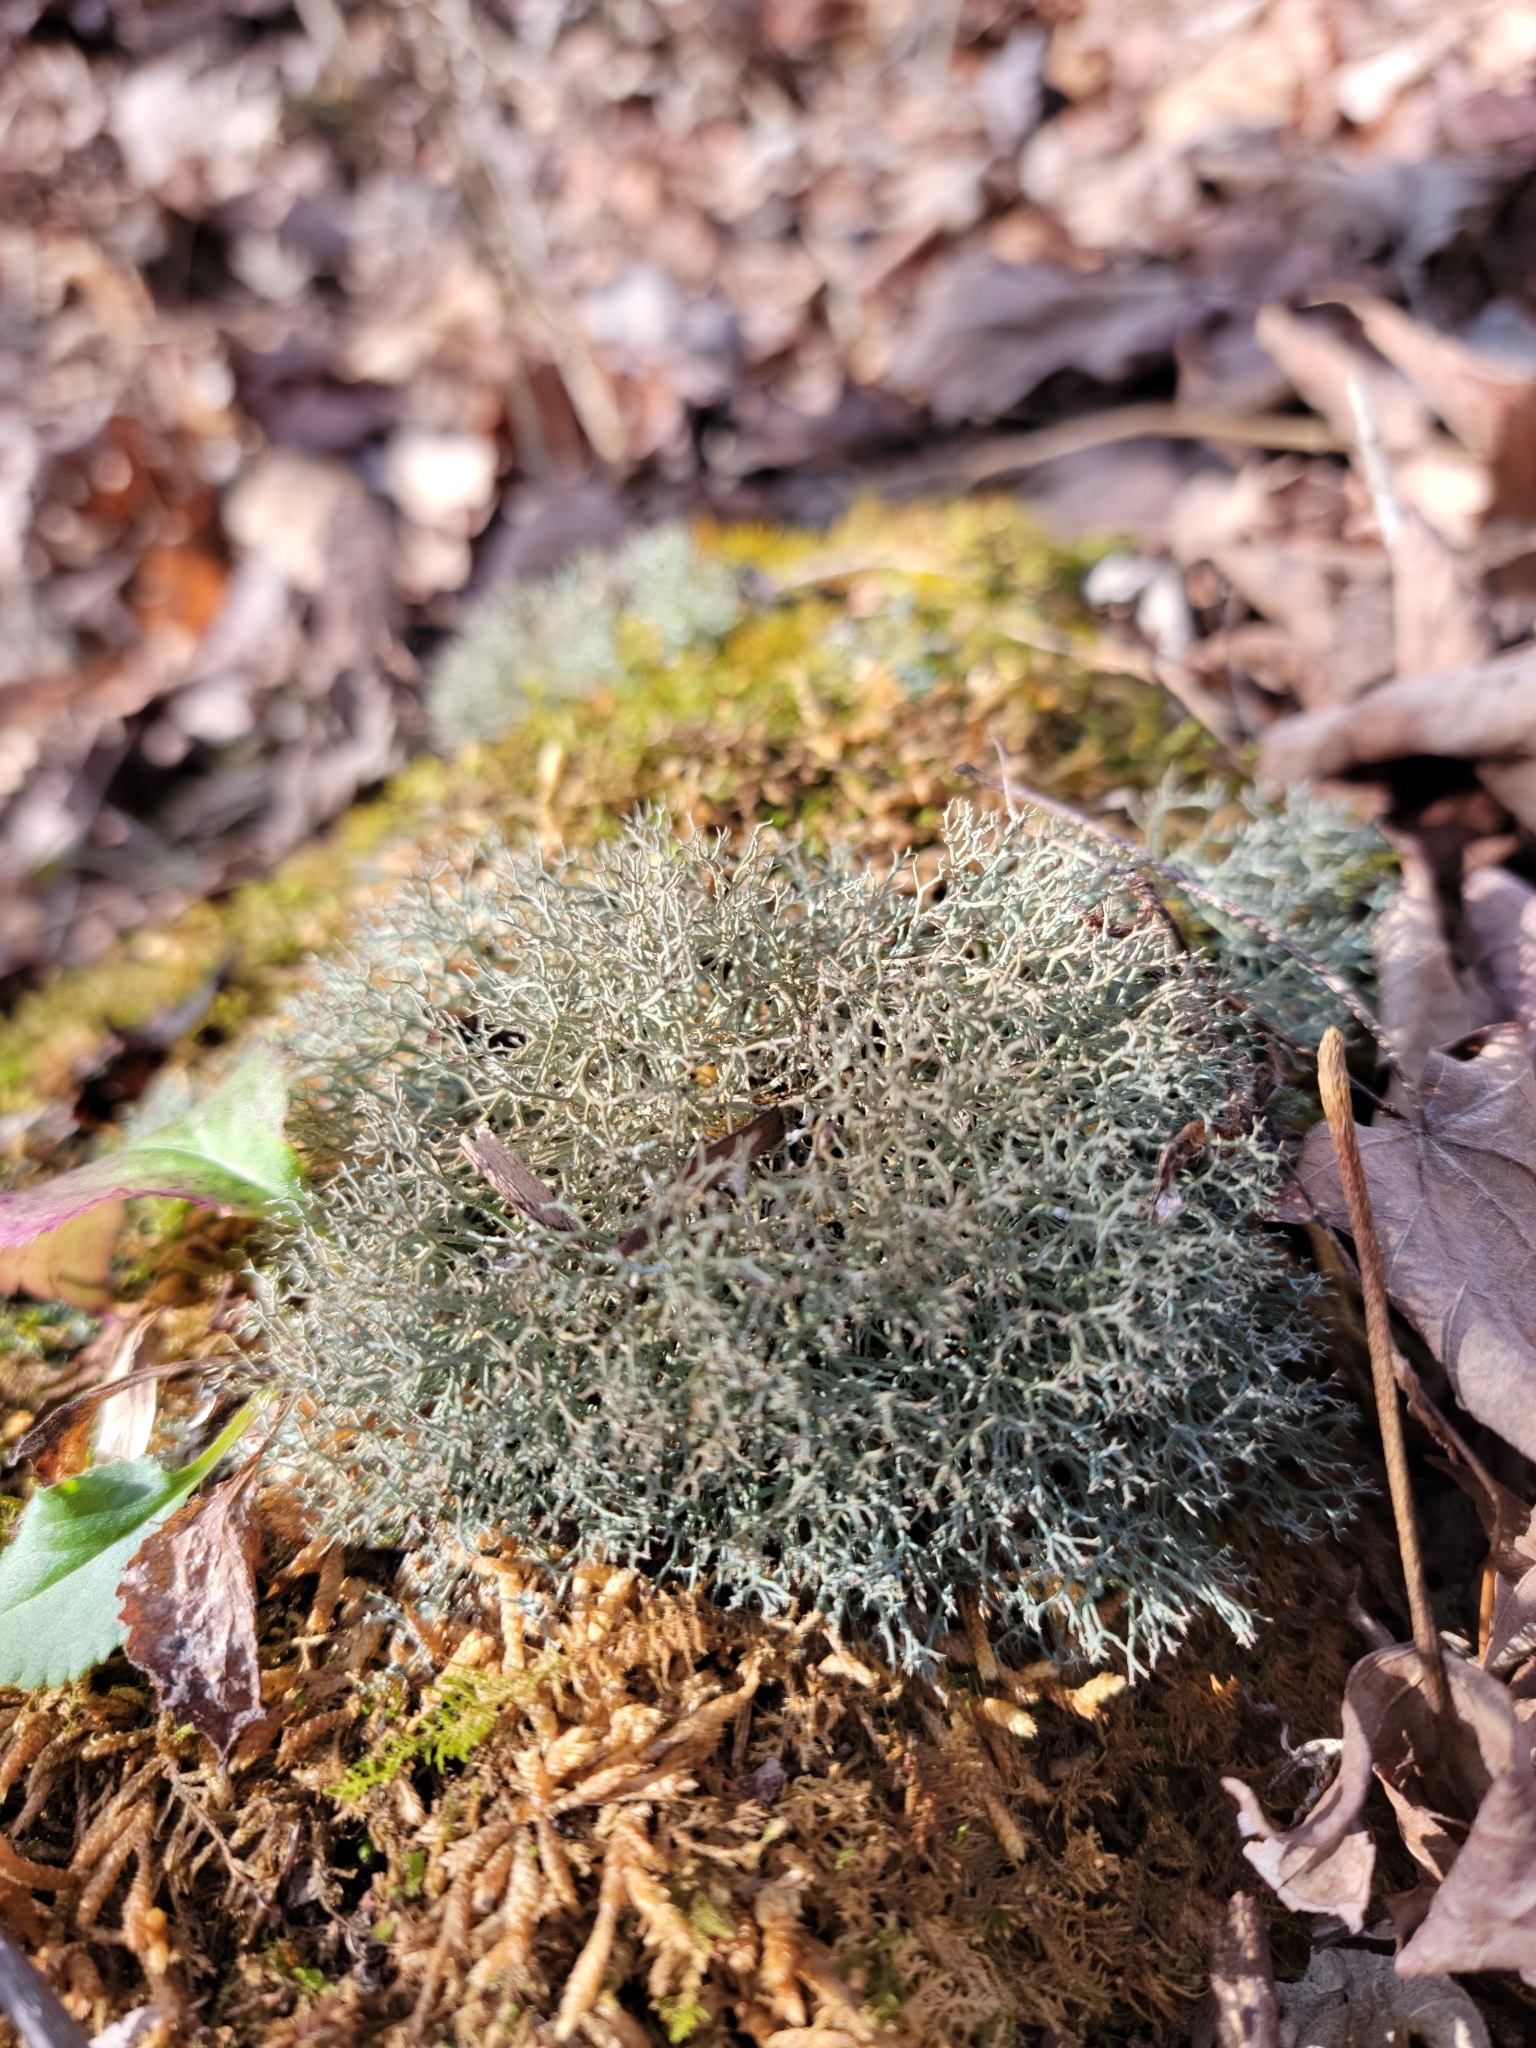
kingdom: Fungi
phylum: Ascomycota
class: Lecanoromycetes
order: Lecanorales
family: Cladoniaceae
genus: Cladonia
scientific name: Cladonia furcata
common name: Many-forked cladonia
